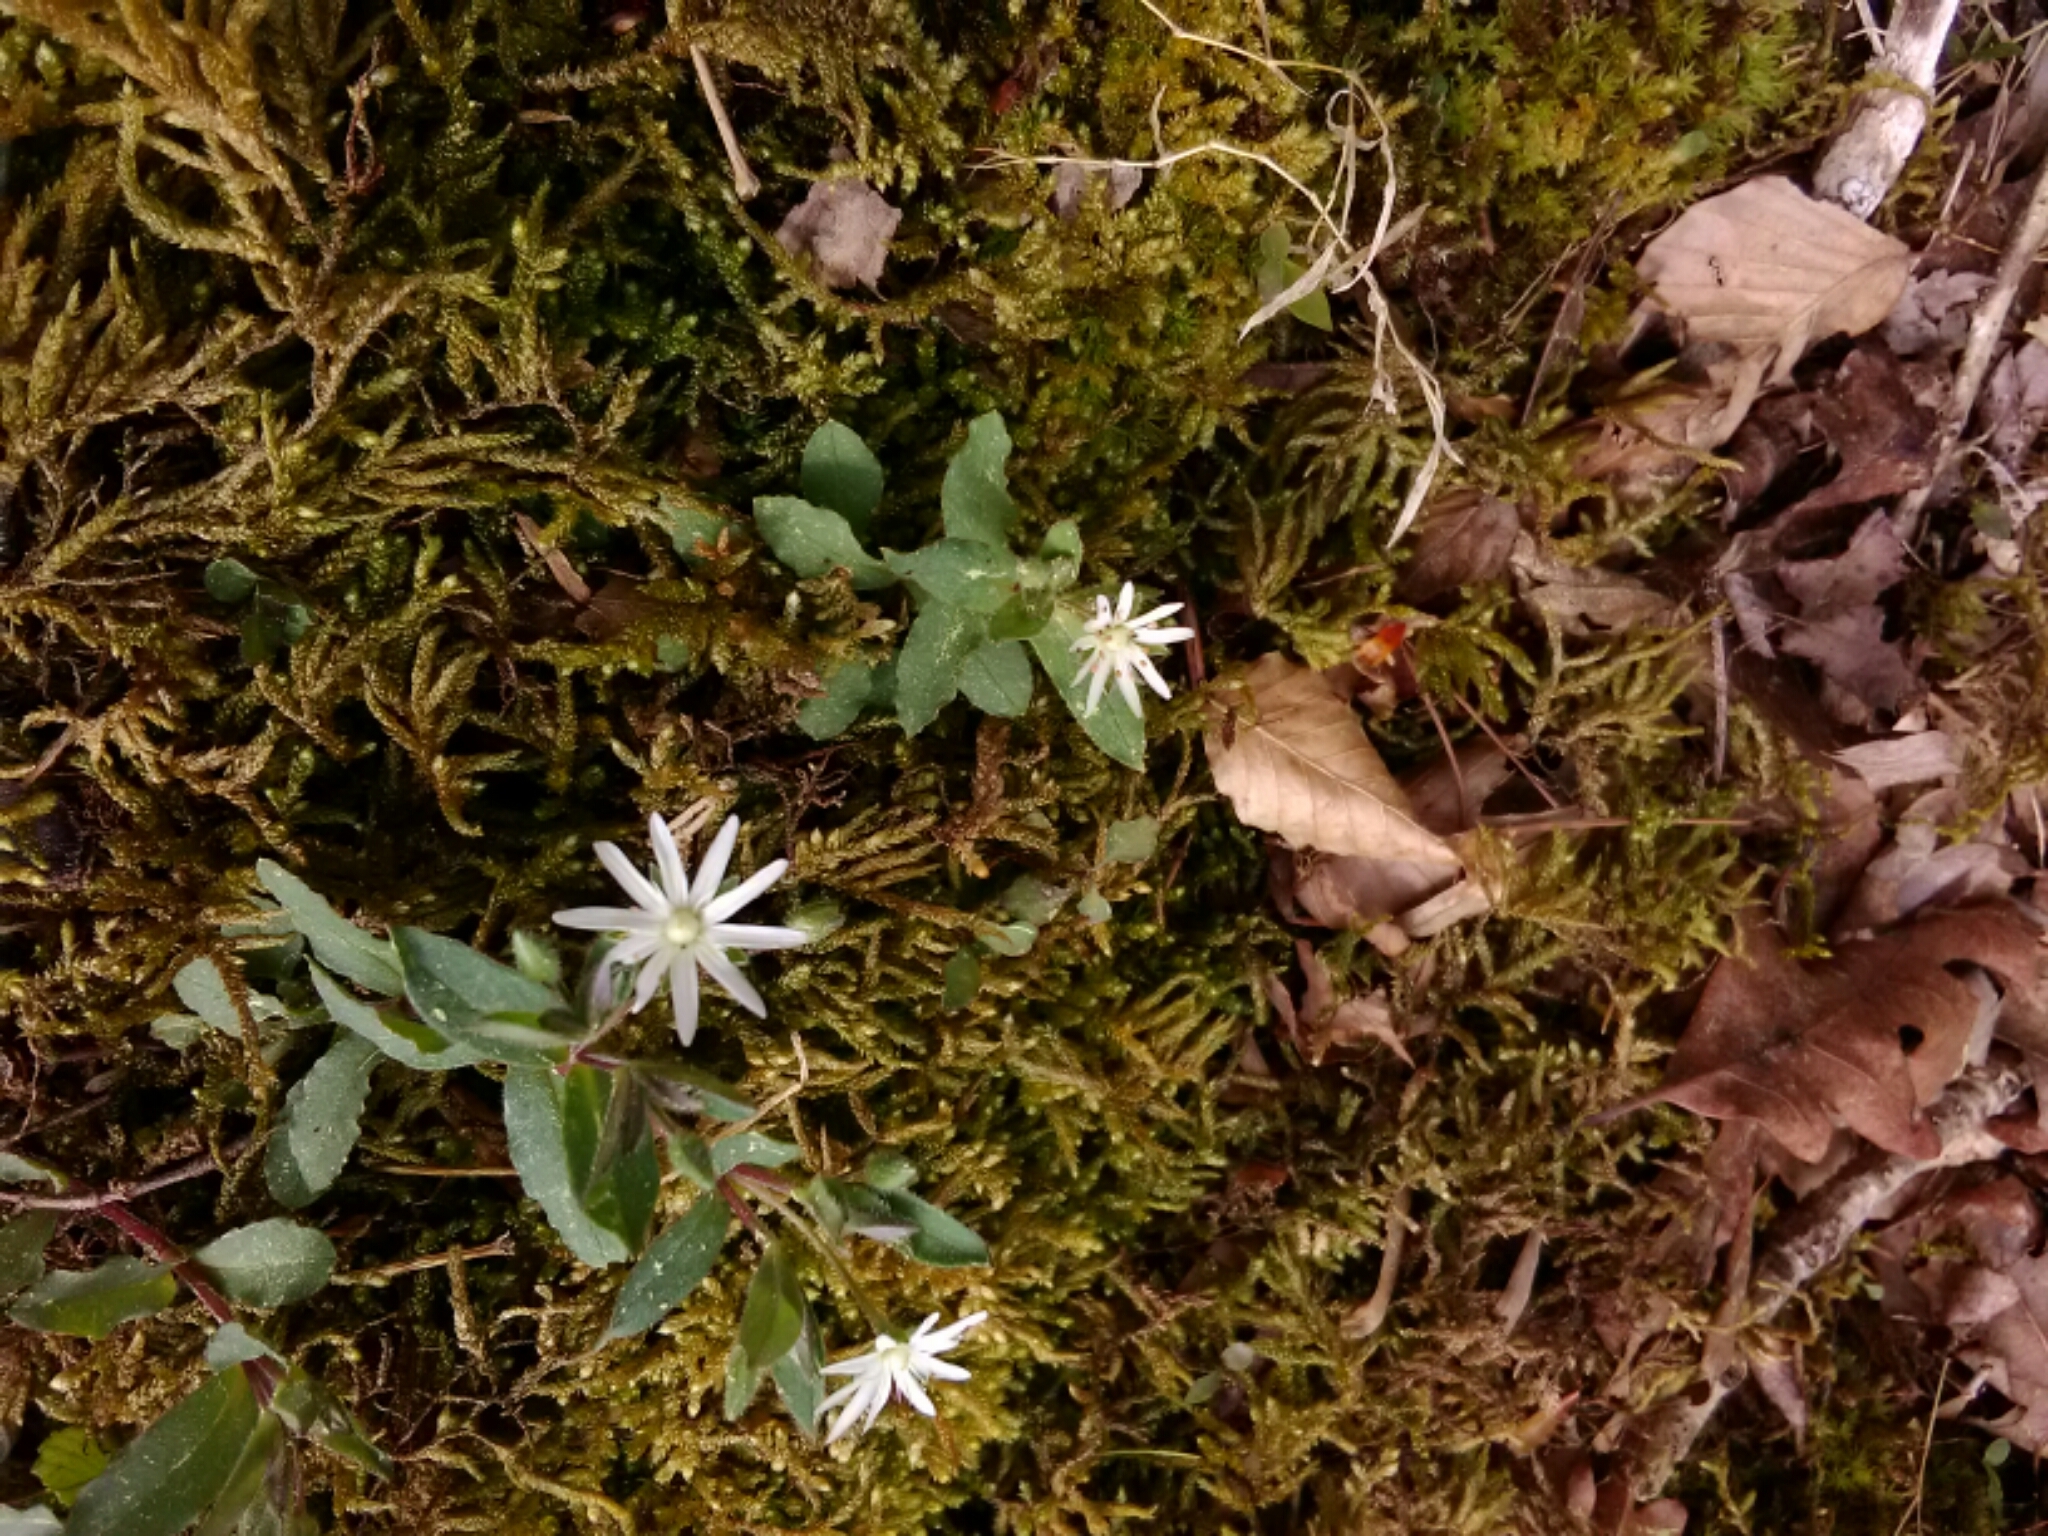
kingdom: Plantae
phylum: Tracheophyta
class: Magnoliopsida
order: Caryophyllales
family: Caryophyllaceae
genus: Stellaria
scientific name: Stellaria pubera
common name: Star chickweed
